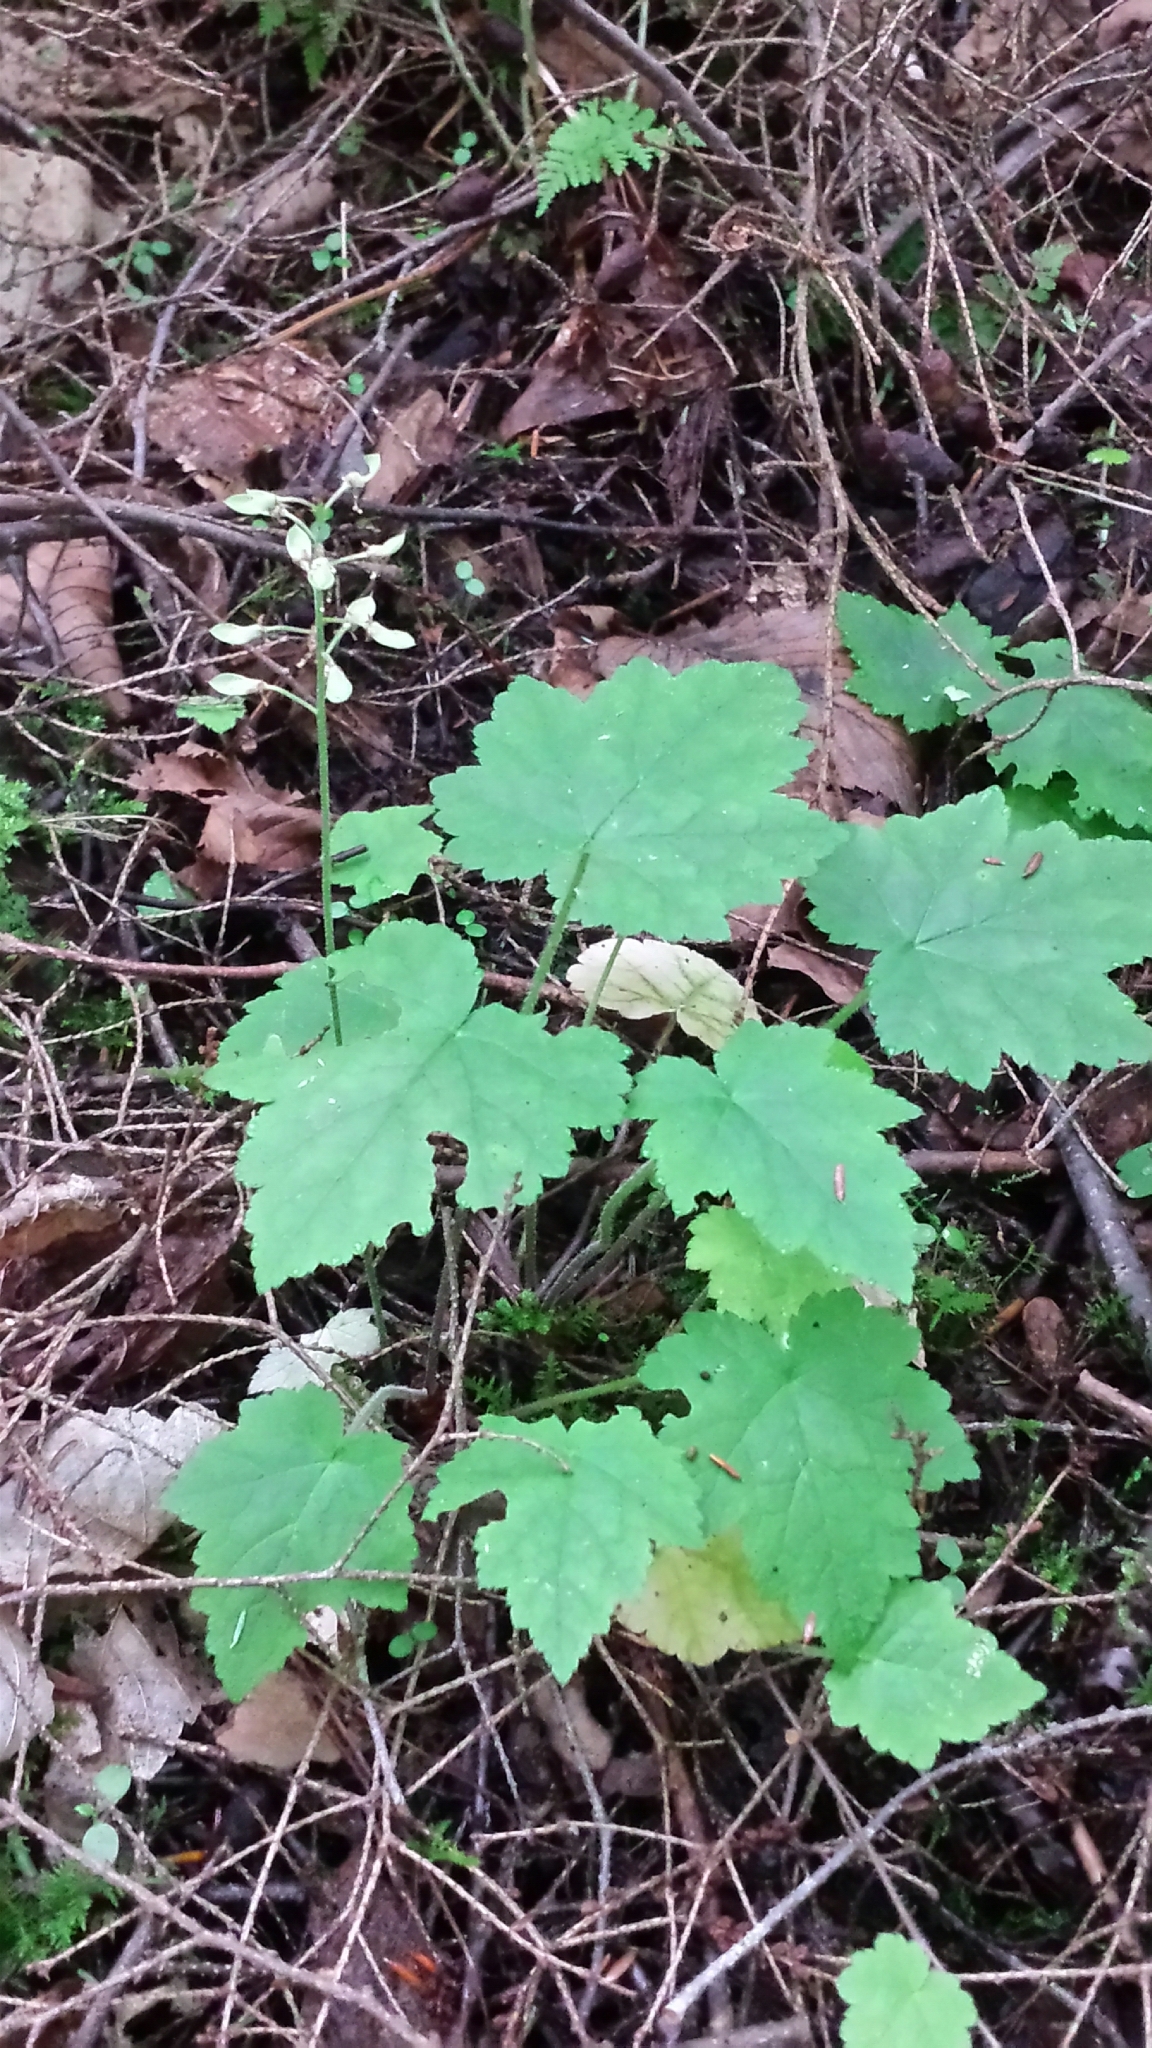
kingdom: Plantae
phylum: Tracheophyta
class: Magnoliopsida
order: Saxifragales
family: Saxifragaceae
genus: Tiarella
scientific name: Tiarella stolonifera
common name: Stoloniferous foamflower
